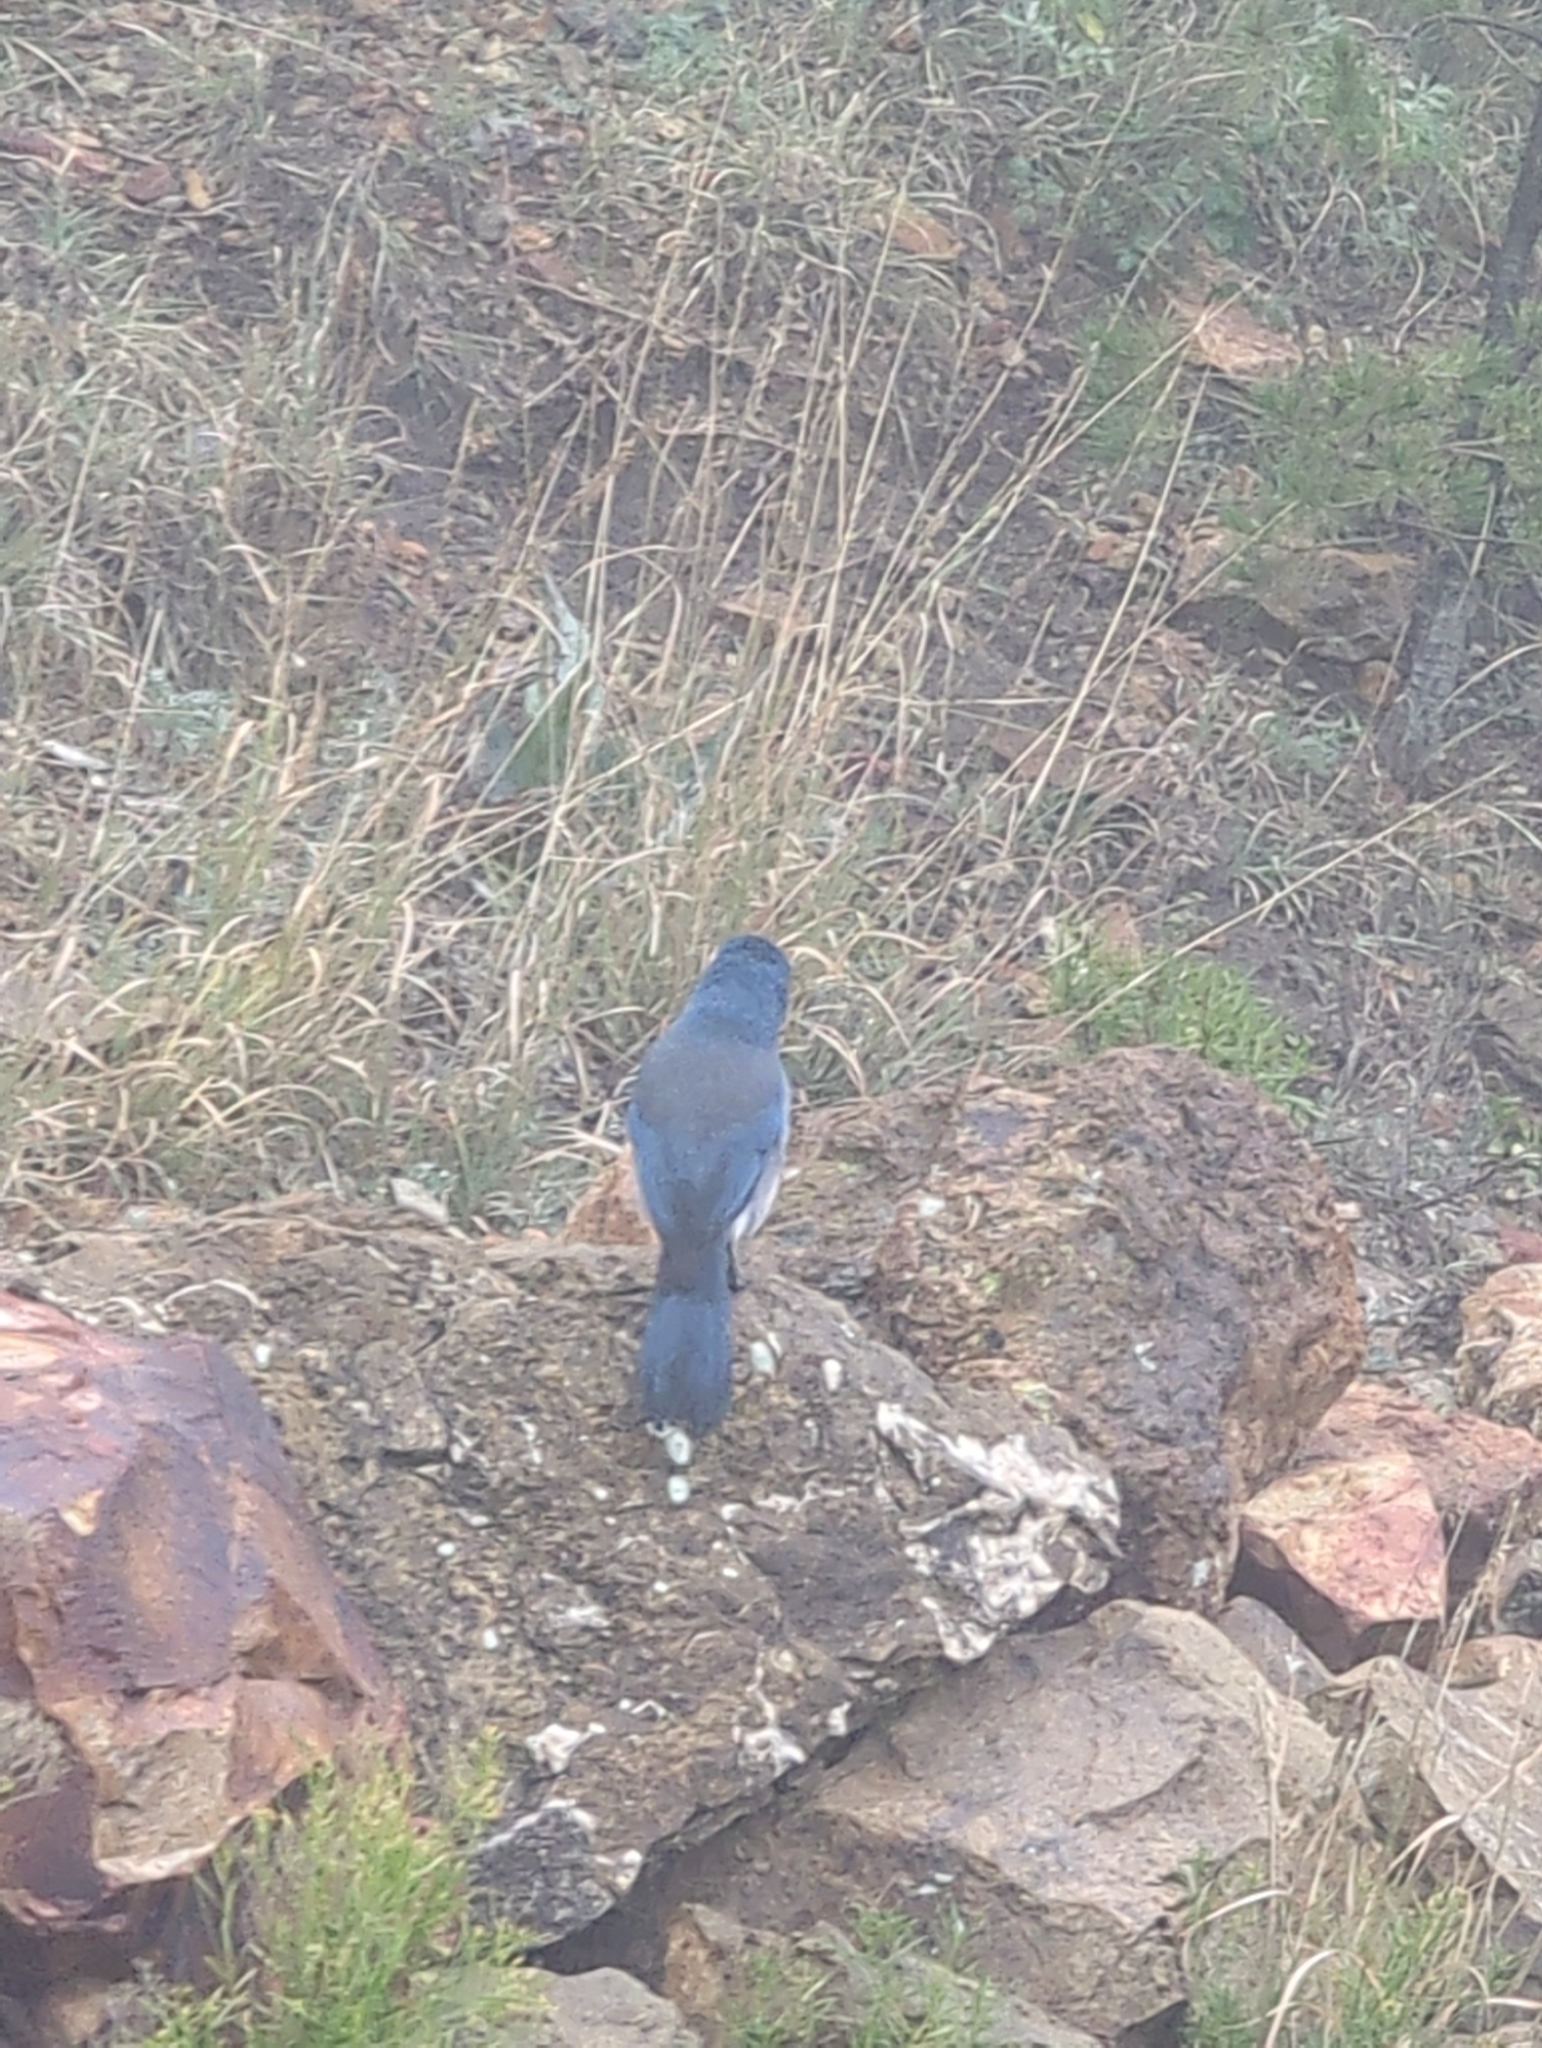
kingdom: Animalia
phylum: Chordata
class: Aves
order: Passeriformes
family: Corvidae
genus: Aphelocoma
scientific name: Aphelocoma wollweberi
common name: Mexican jay
